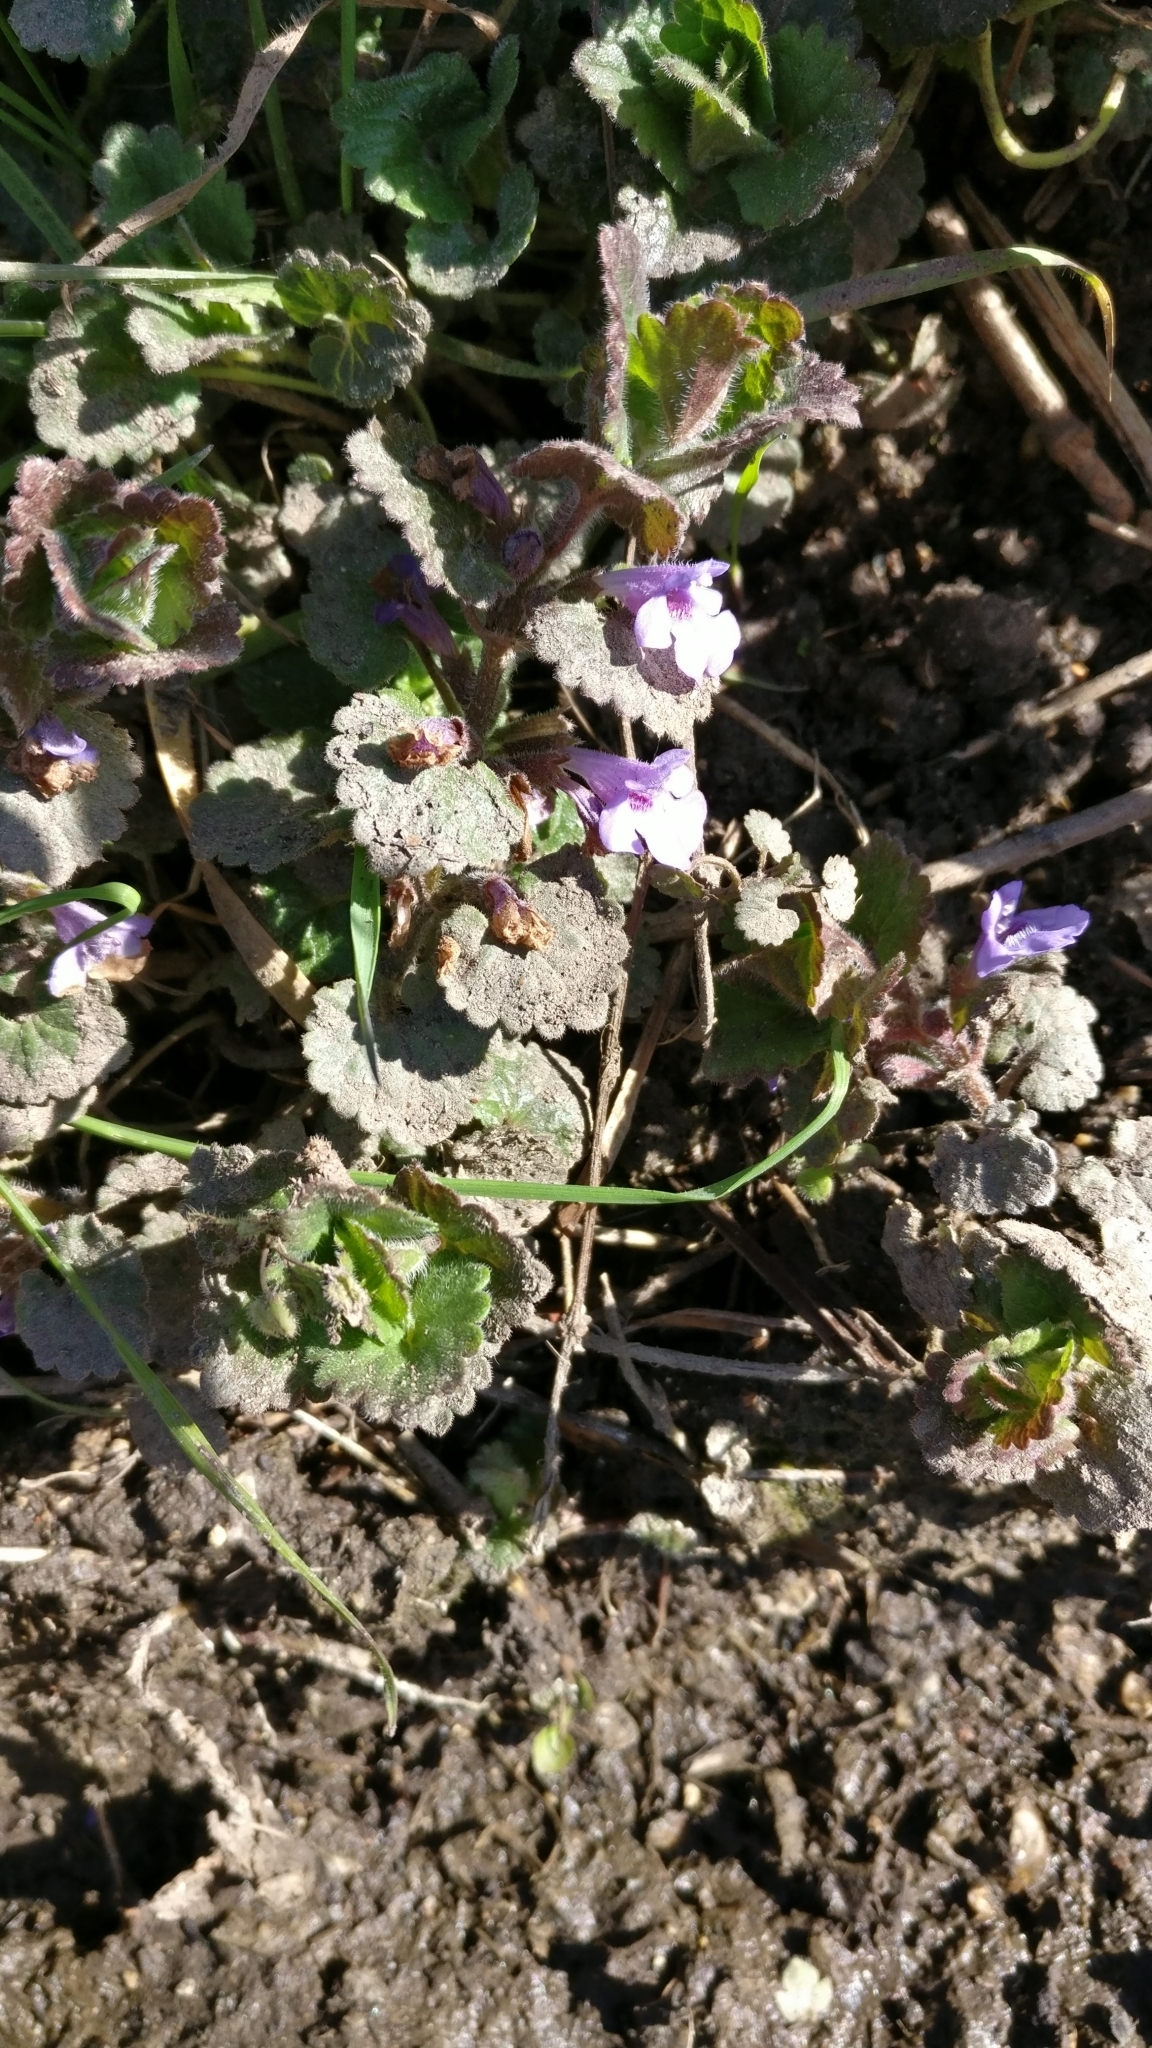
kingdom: Plantae
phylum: Tracheophyta
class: Magnoliopsida
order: Lamiales
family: Lamiaceae
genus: Glechoma
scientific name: Glechoma hederacea
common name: Ground ivy
